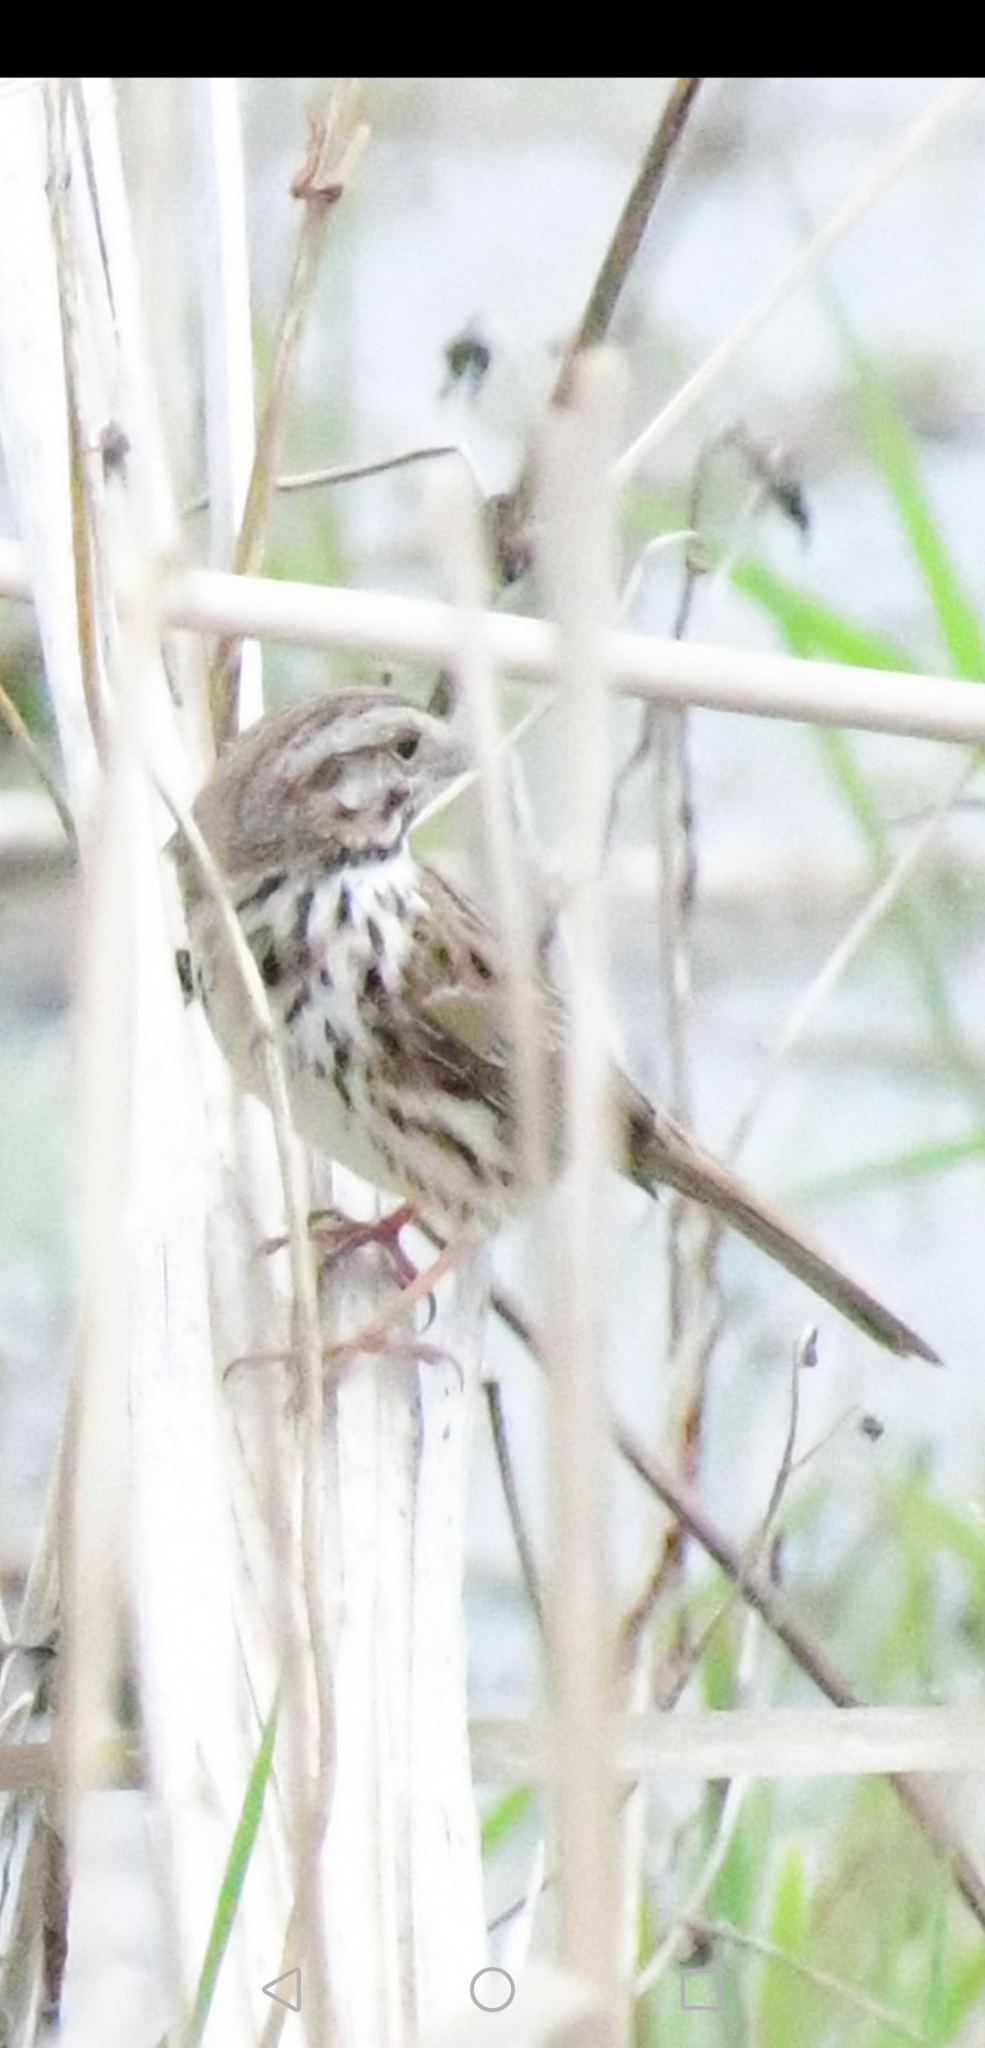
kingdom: Animalia
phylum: Chordata
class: Aves
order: Passeriformes
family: Passerellidae
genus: Melospiza
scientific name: Melospiza melodia
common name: Song sparrow
